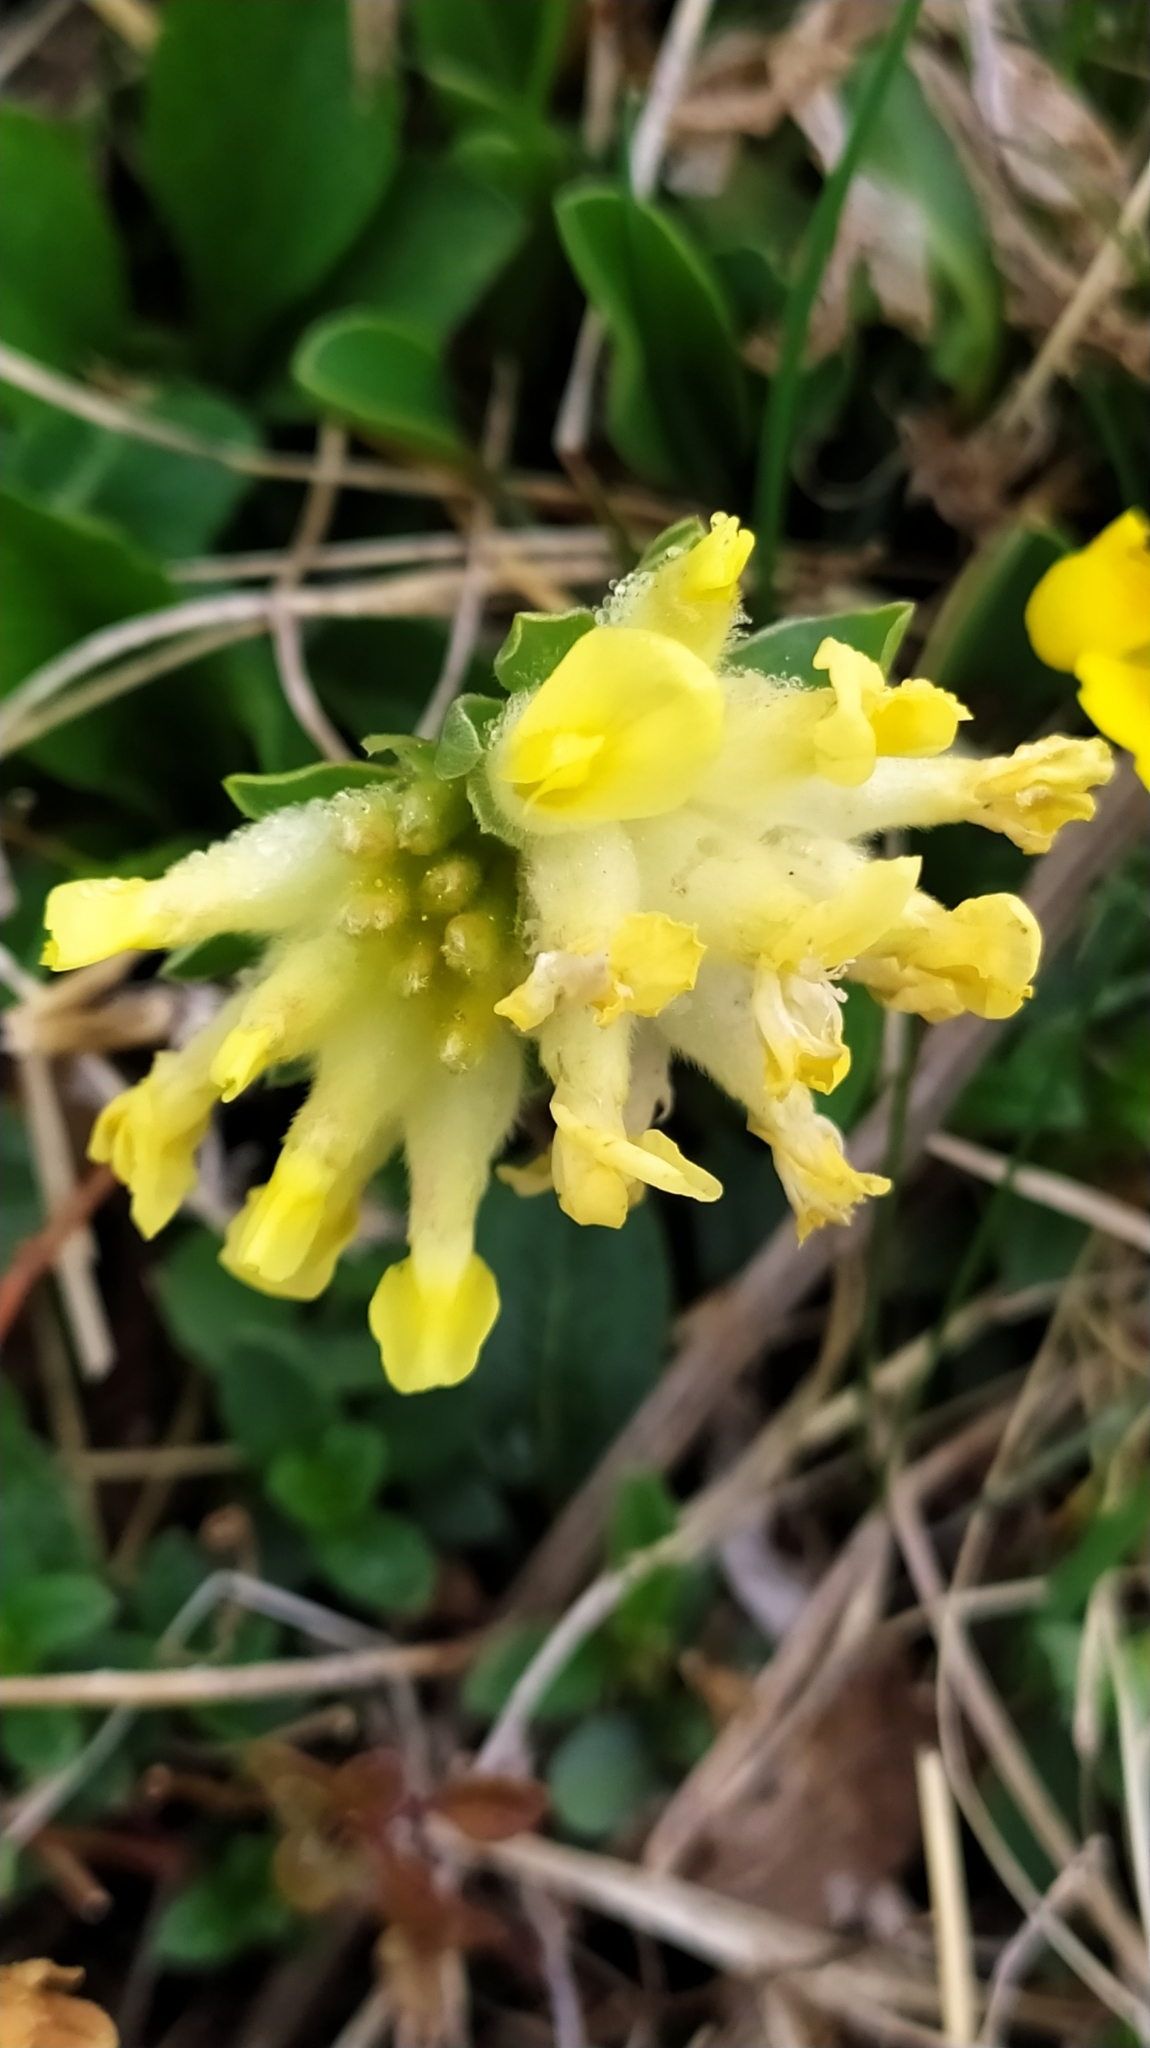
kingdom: Plantae
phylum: Tracheophyta
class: Magnoliopsida
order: Fabales
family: Fabaceae
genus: Anthyllis
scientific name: Anthyllis vulneraria
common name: Kidney vetch
